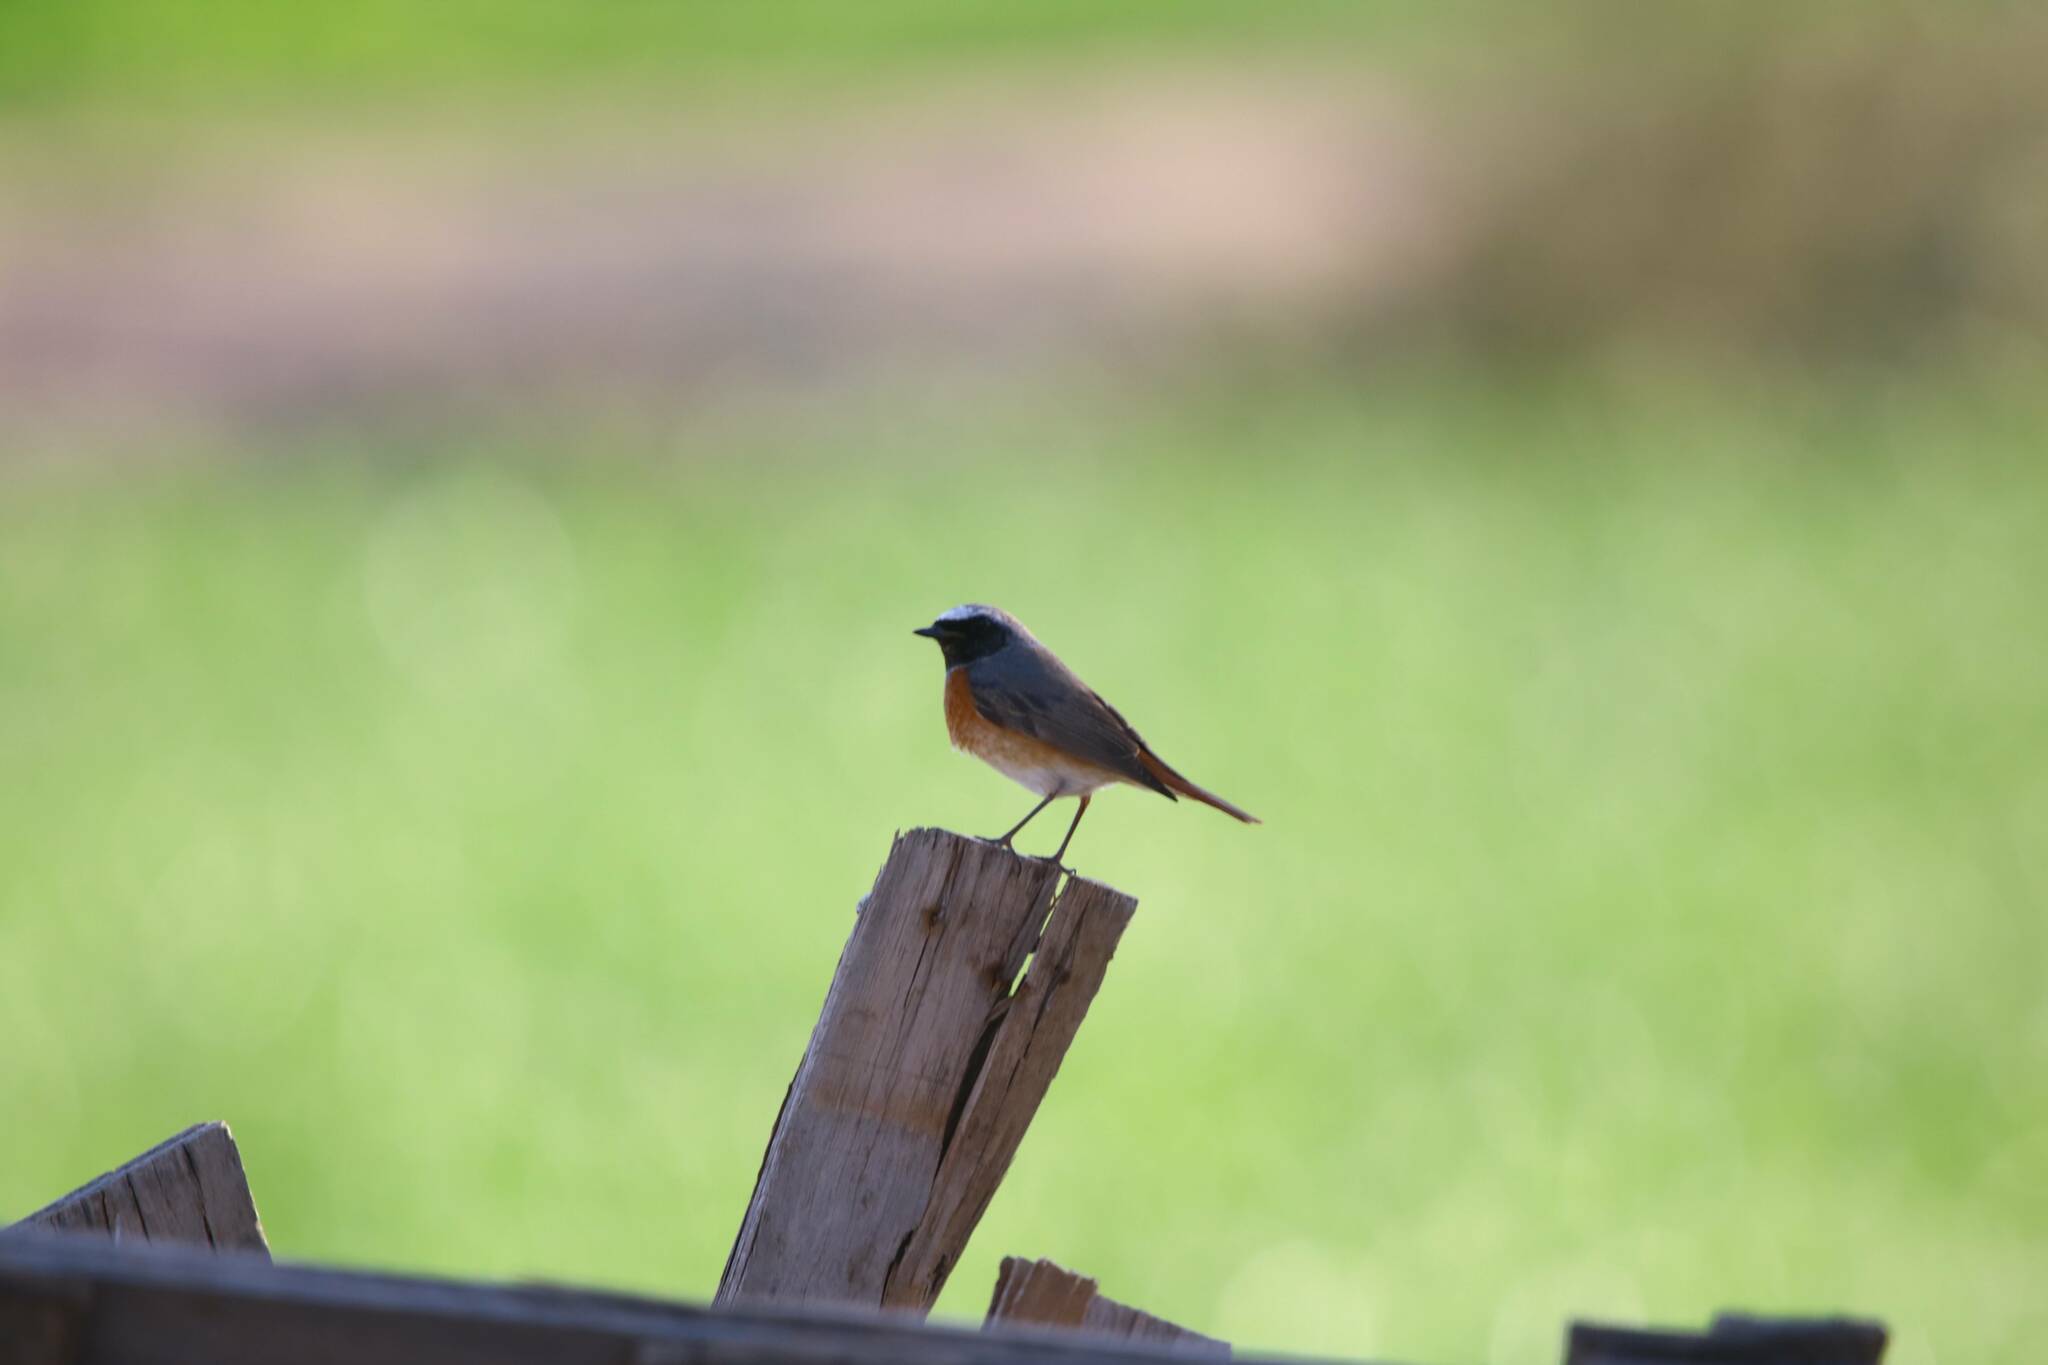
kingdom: Animalia
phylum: Chordata
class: Aves
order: Passeriformes
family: Muscicapidae
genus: Phoenicurus
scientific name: Phoenicurus phoenicurus
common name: Common redstart
